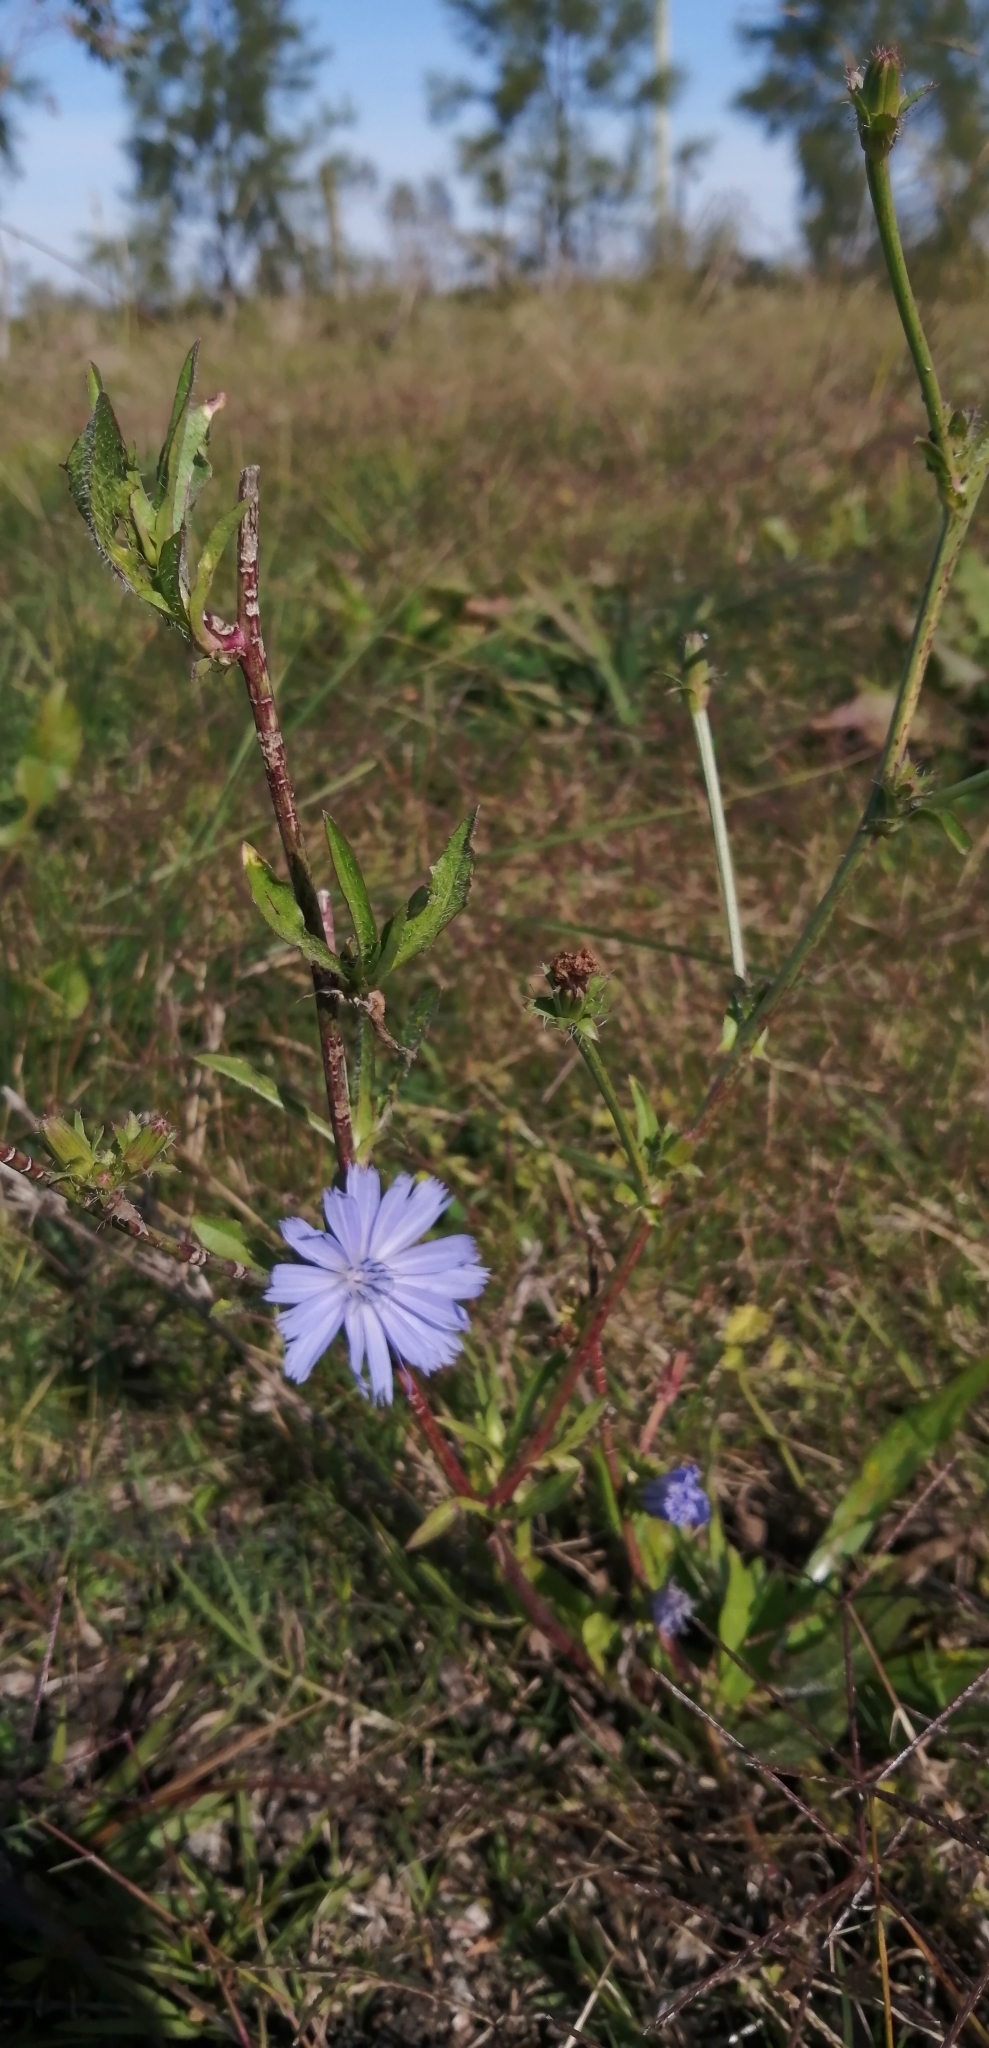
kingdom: Plantae
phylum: Tracheophyta
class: Magnoliopsida
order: Asterales
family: Asteraceae
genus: Cichorium
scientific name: Cichorium intybus
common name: Chicory
